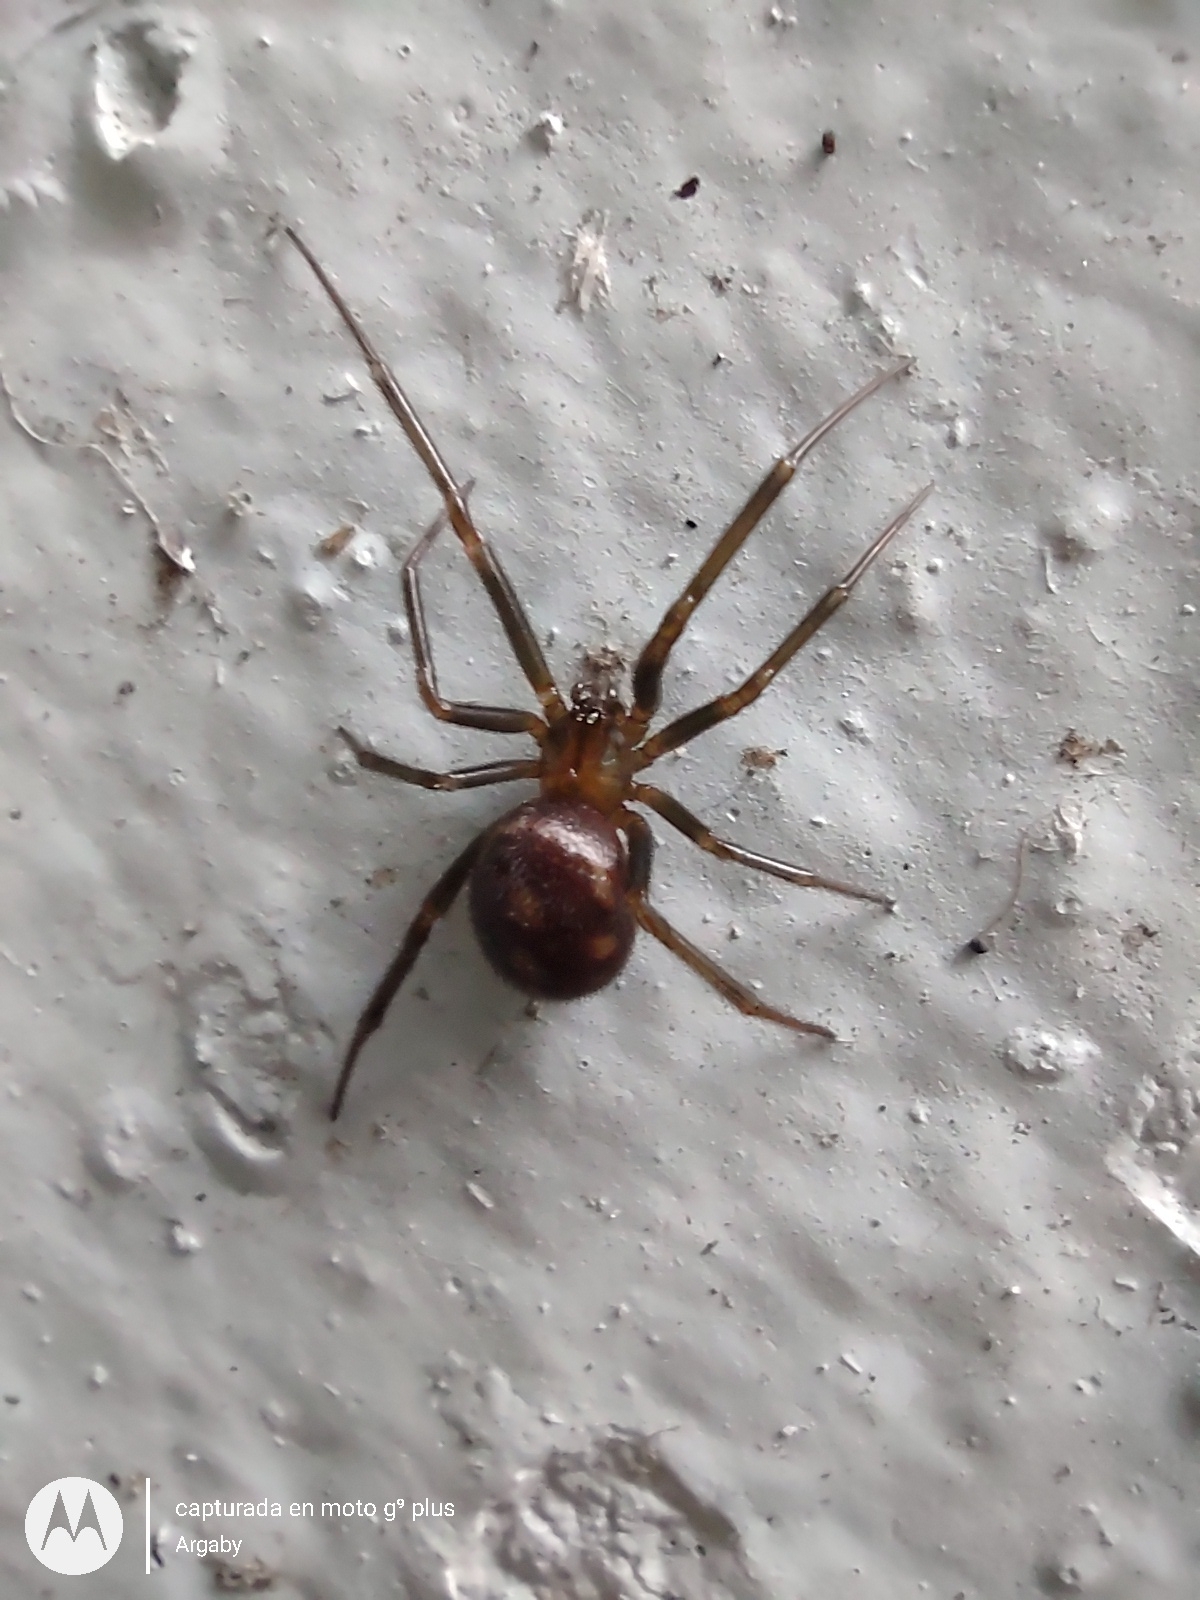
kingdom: Animalia
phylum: Arthropoda
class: Arachnida
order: Araneae
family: Theridiidae
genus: Steatoda
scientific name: Steatoda grossa
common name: False black widow
